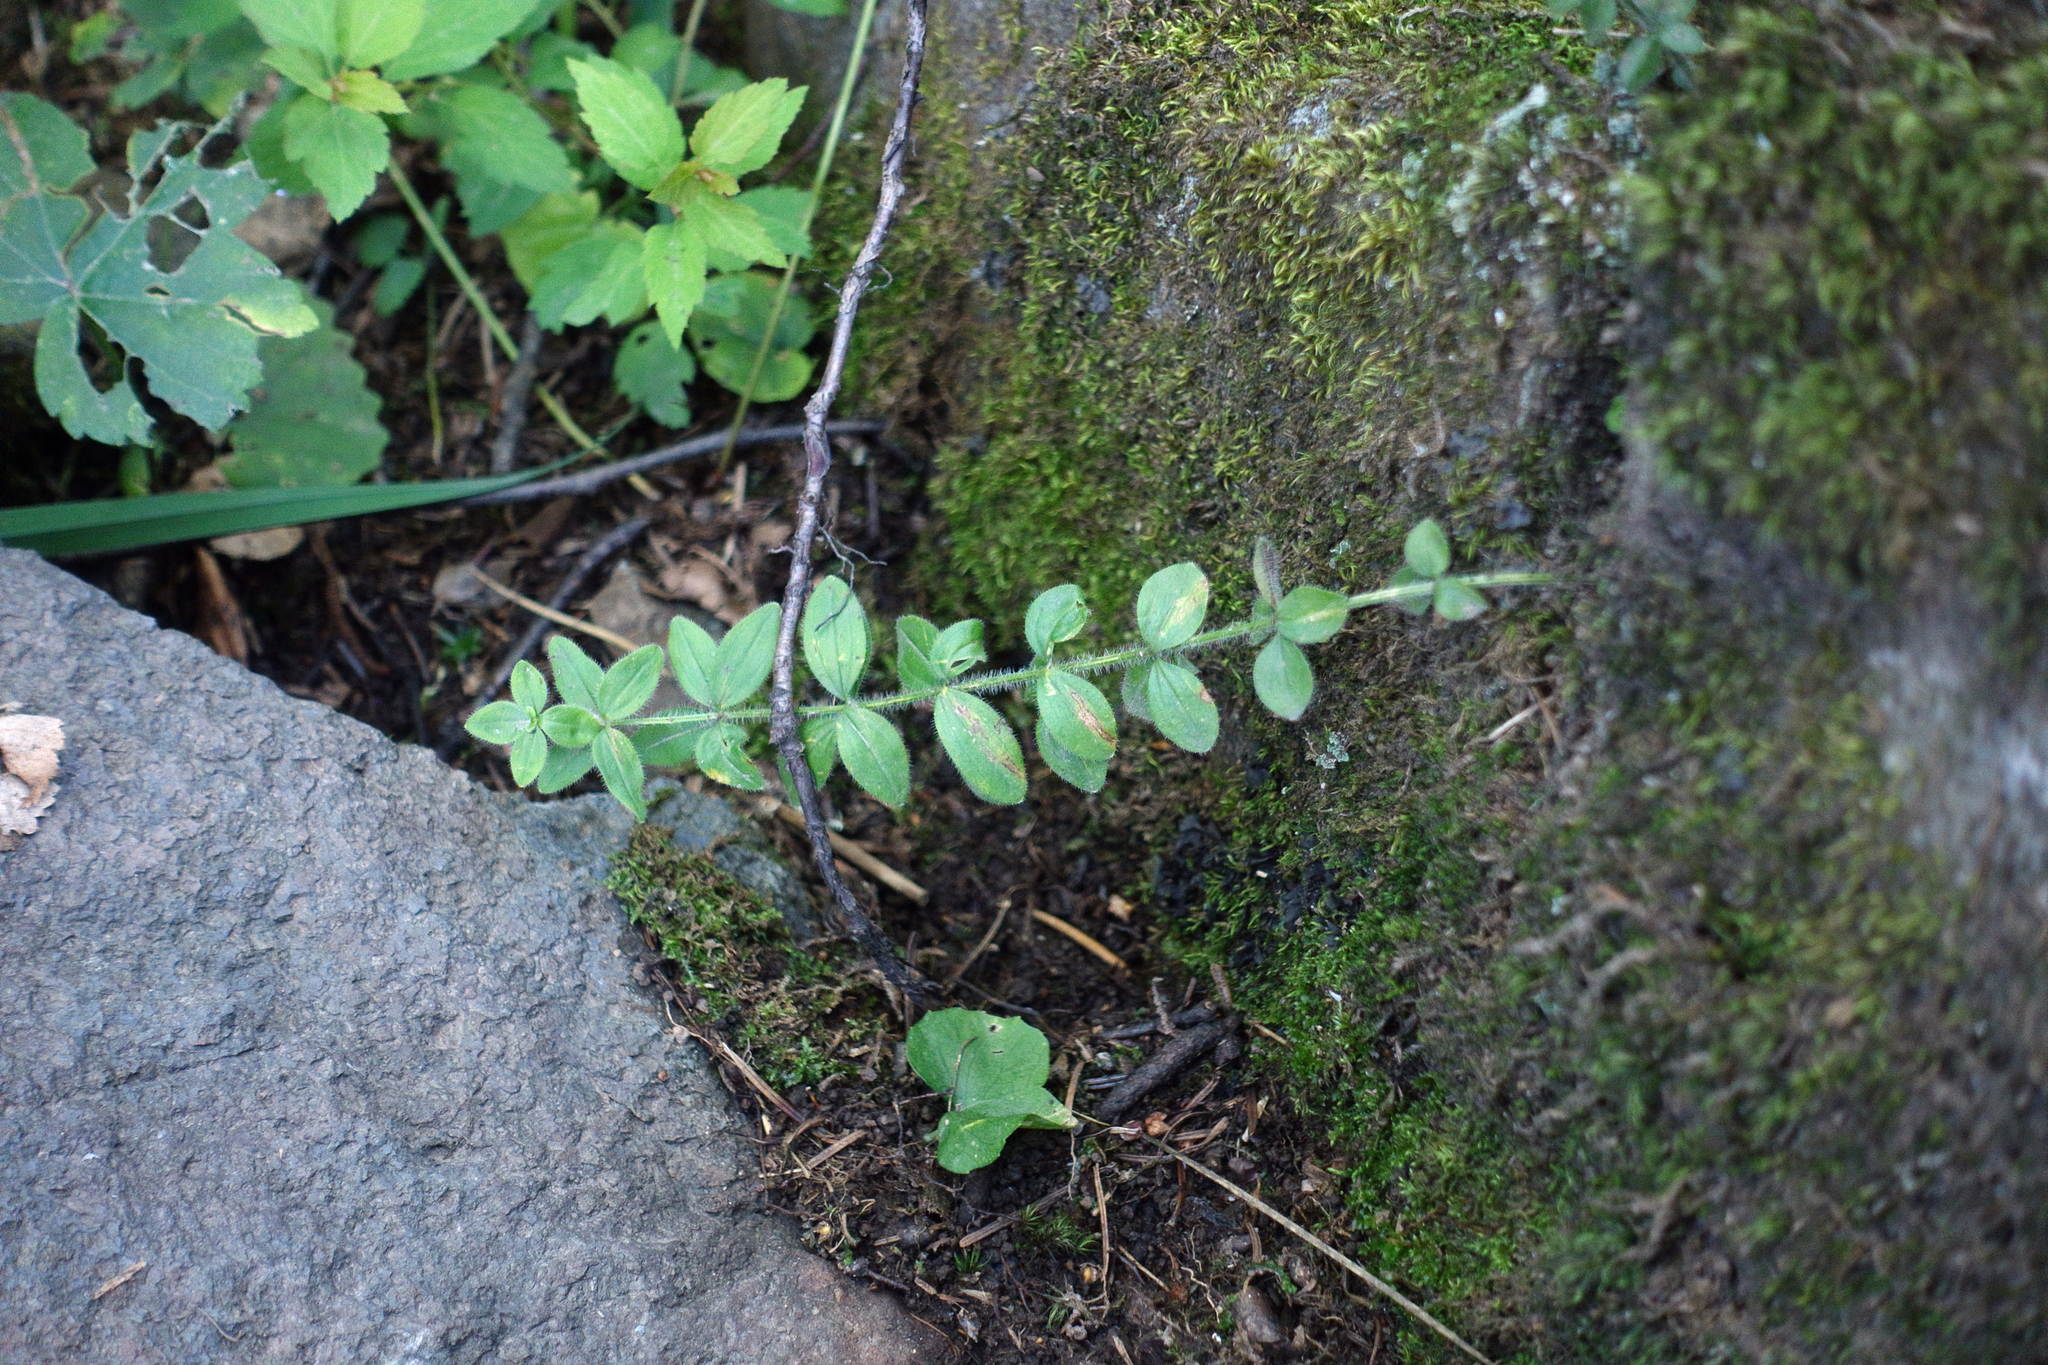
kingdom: Plantae
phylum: Tracheophyta
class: Magnoliopsida
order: Gentianales
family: Rubiaceae
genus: Cruciata
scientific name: Cruciata glabra
